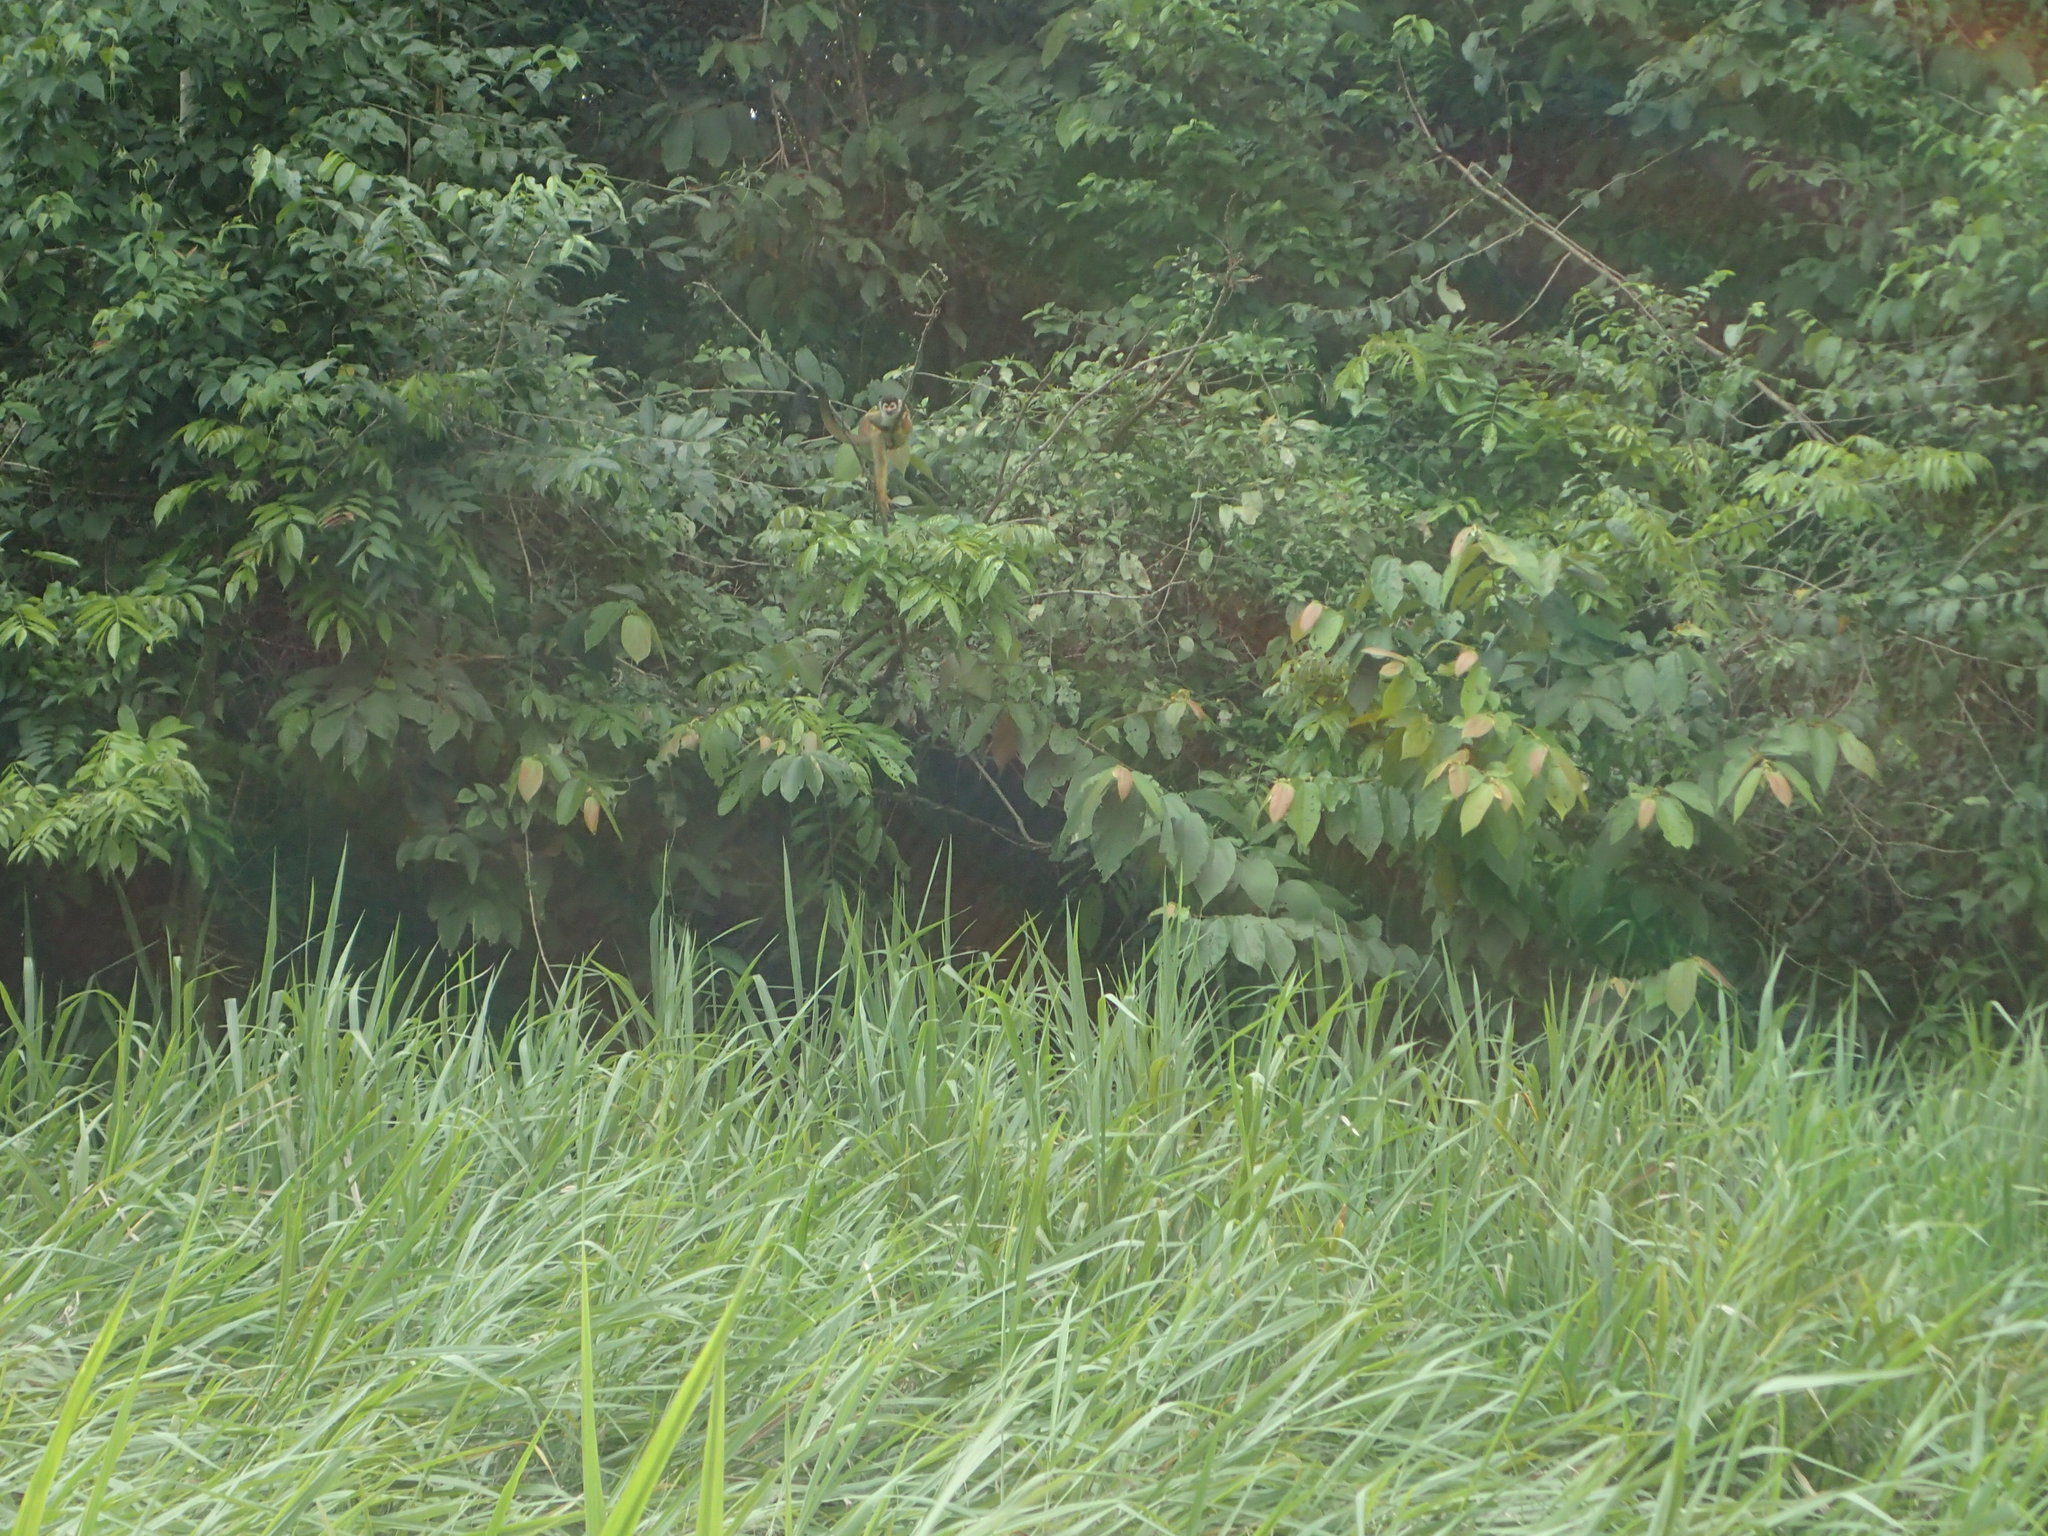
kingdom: Animalia
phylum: Chordata
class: Mammalia
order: Primates
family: Cebidae
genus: Saimiri
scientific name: Saimiri oerstedii
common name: Central american squirrel monkey
